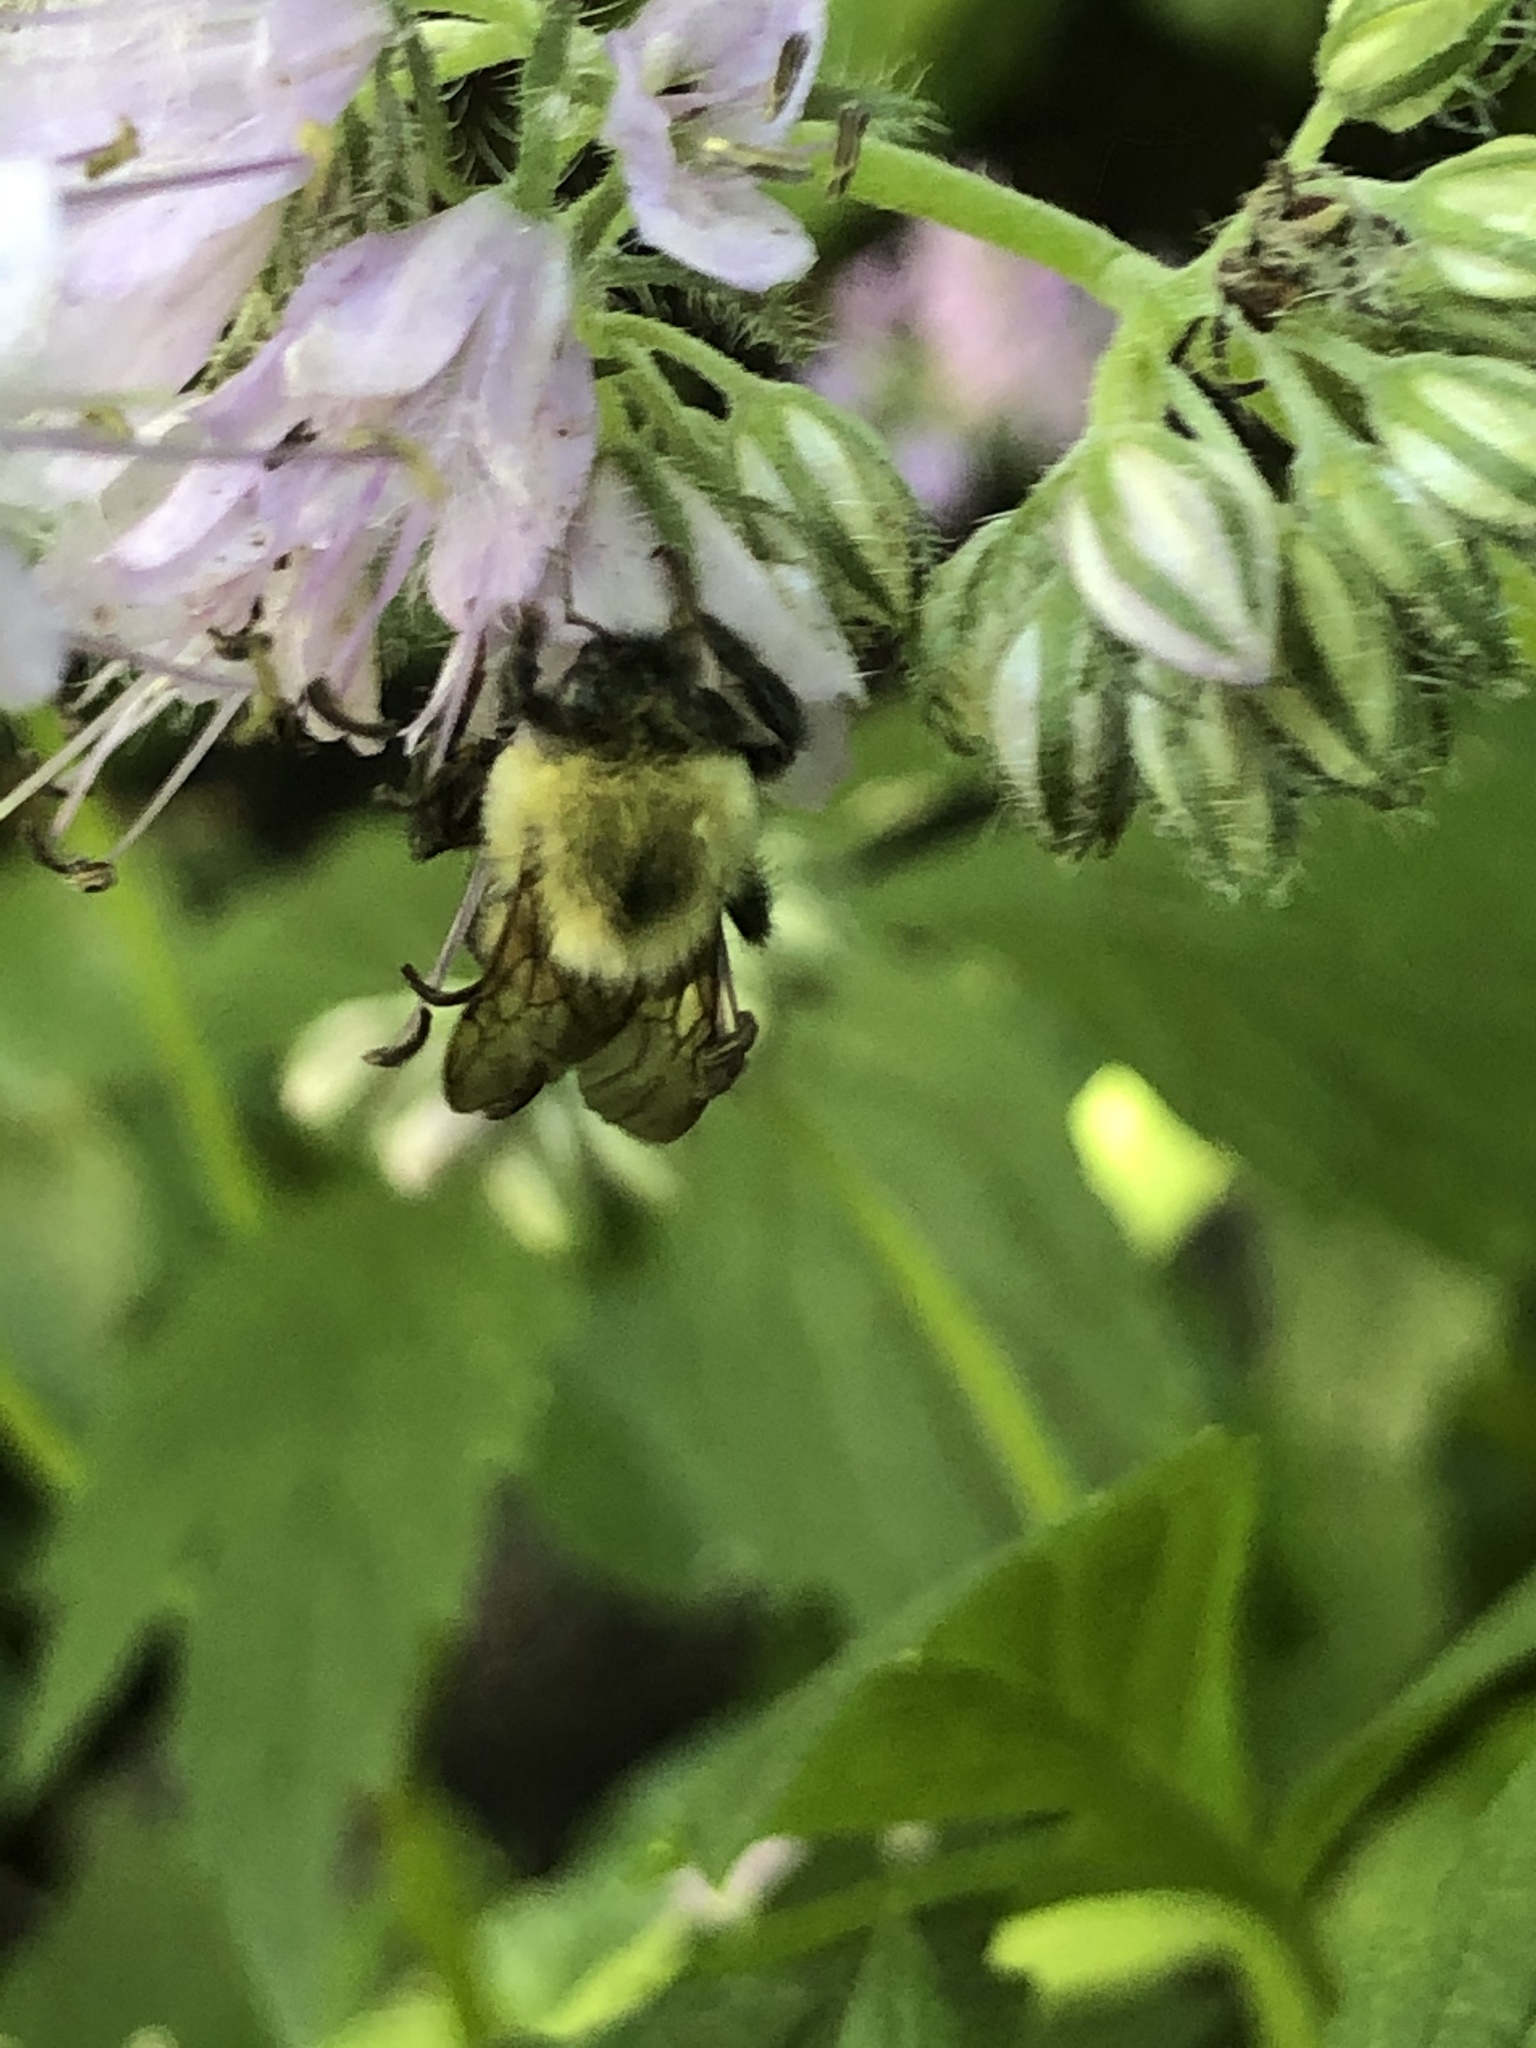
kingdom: Animalia
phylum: Arthropoda
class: Insecta
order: Hymenoptera
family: Apidae
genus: Bombus
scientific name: Bombus bimaculatus
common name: Two-spotted bumble bee
